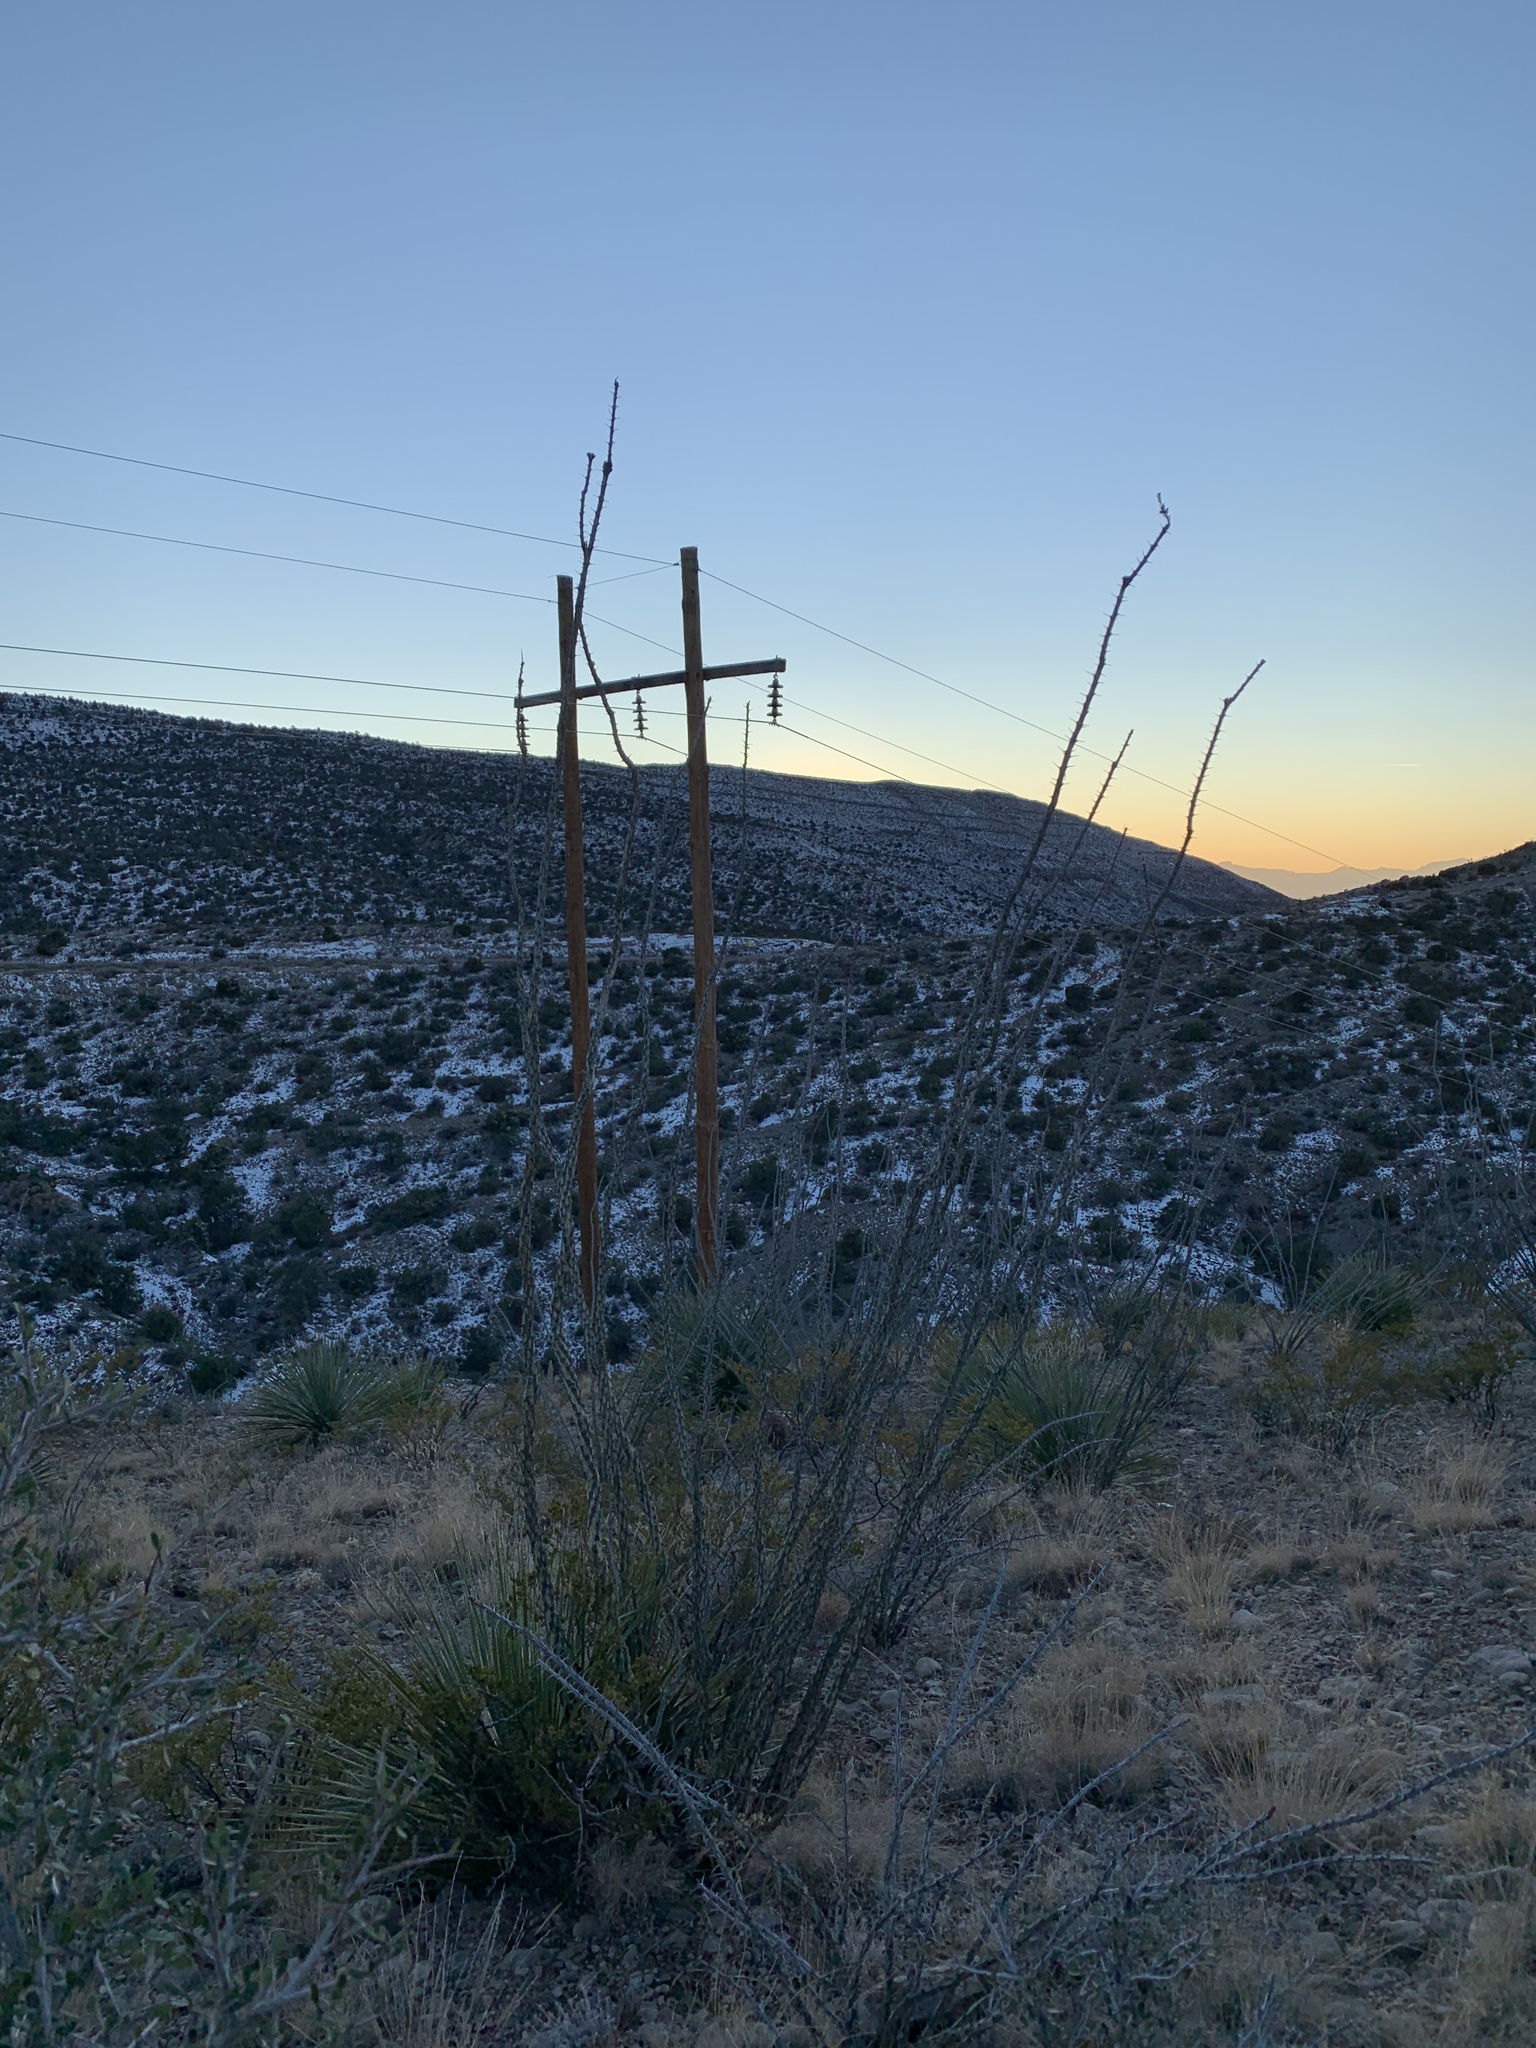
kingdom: Plantae
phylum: Tracheophyta
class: Magnoliopsida
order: Ericales
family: Fouquieriaceae
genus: Fouquieria
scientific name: Fouquieria splendens
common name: Vine-cactus
